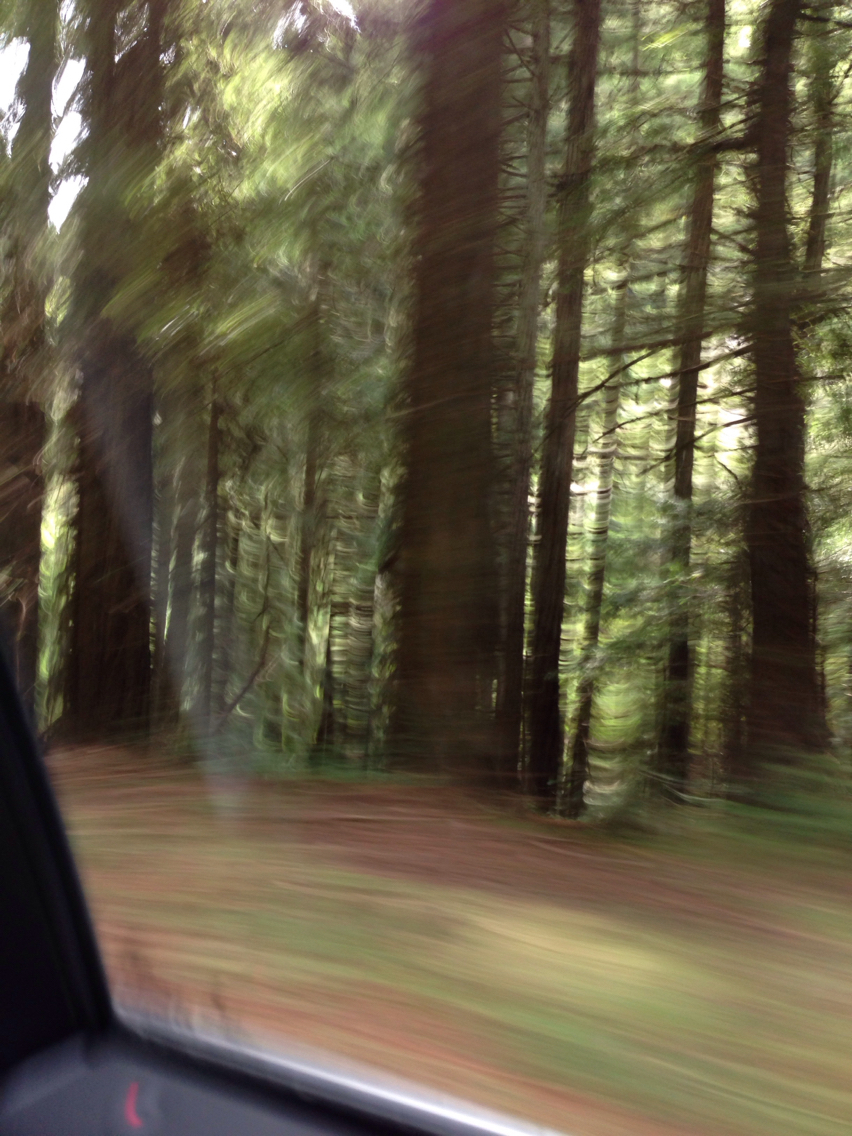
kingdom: Plantae
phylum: Tracheophyta
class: Pinopsida
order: Pinales
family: Cupressaceae
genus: Sequoia
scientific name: Sequoia sempervirens
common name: Coast redwood
